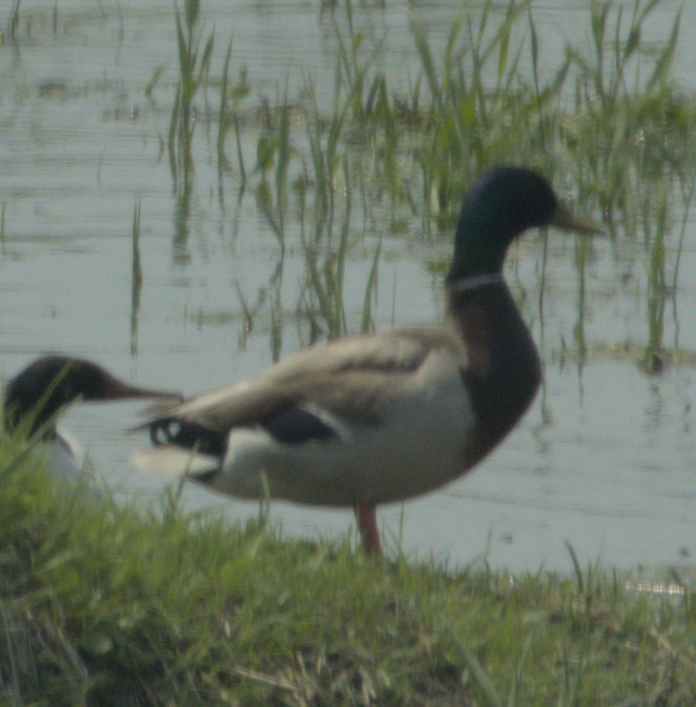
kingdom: Animalia
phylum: Chordata
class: Aves
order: Anseriformes
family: Anatidae
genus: Anas
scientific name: Anas platyrhynchos
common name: Mallard
